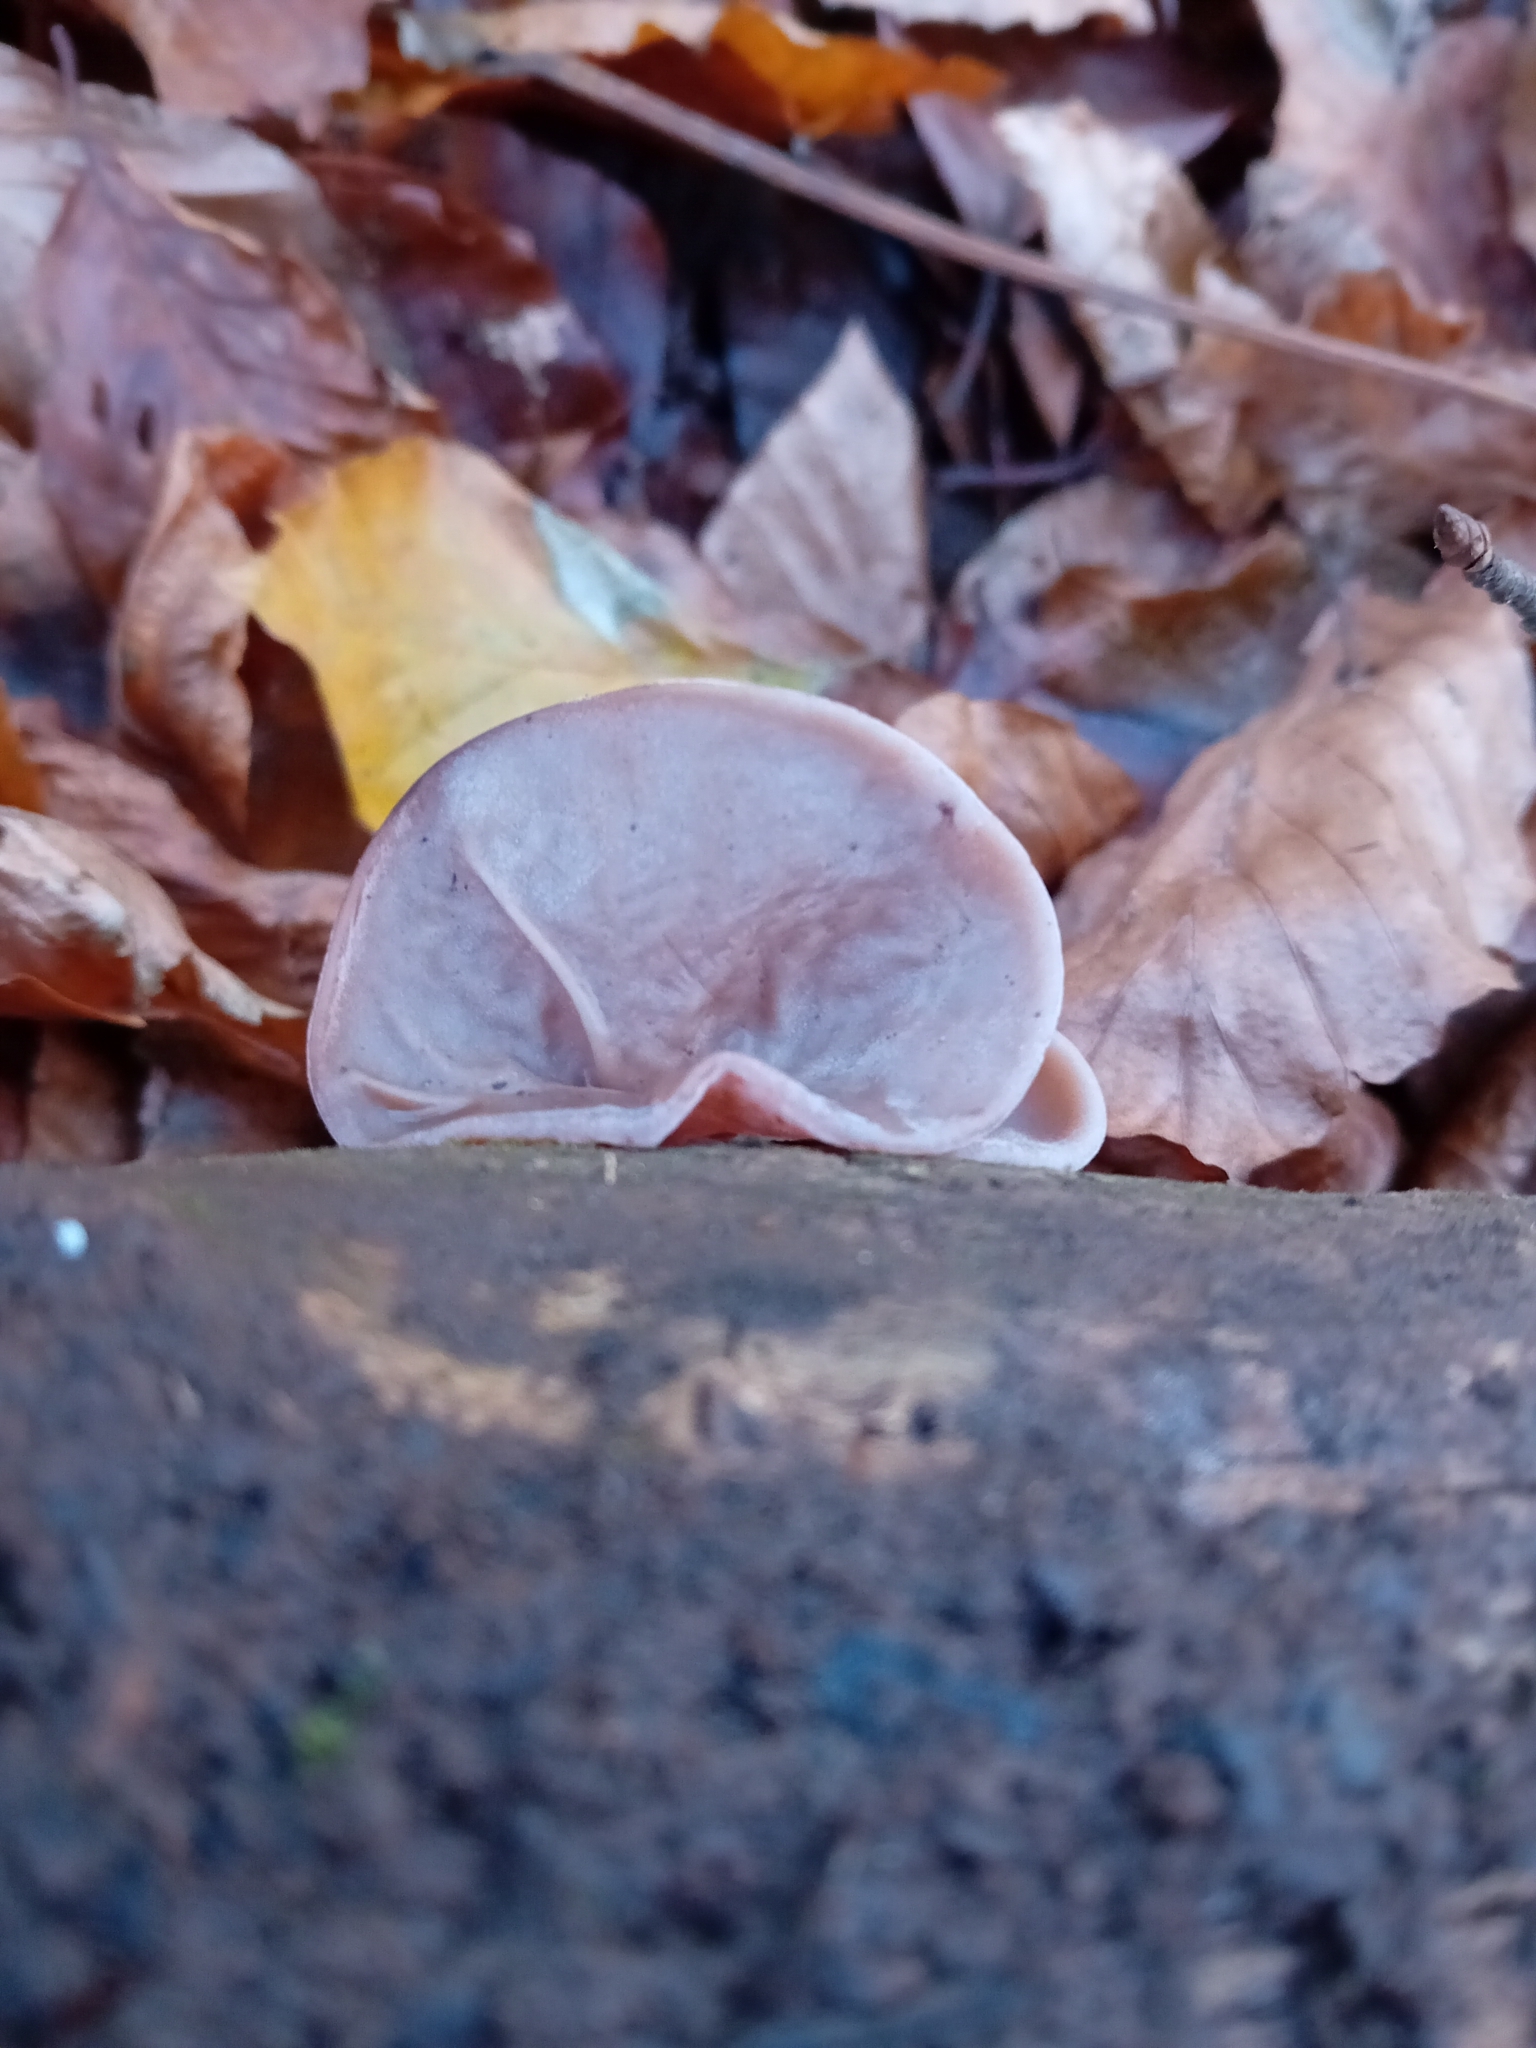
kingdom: Fungi
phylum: Basidiomycota
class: Agaricomycetes
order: Auriculariales
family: Auriculariaceae
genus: Auricularia
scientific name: Auricularia auricula-judae
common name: Jelly ear
